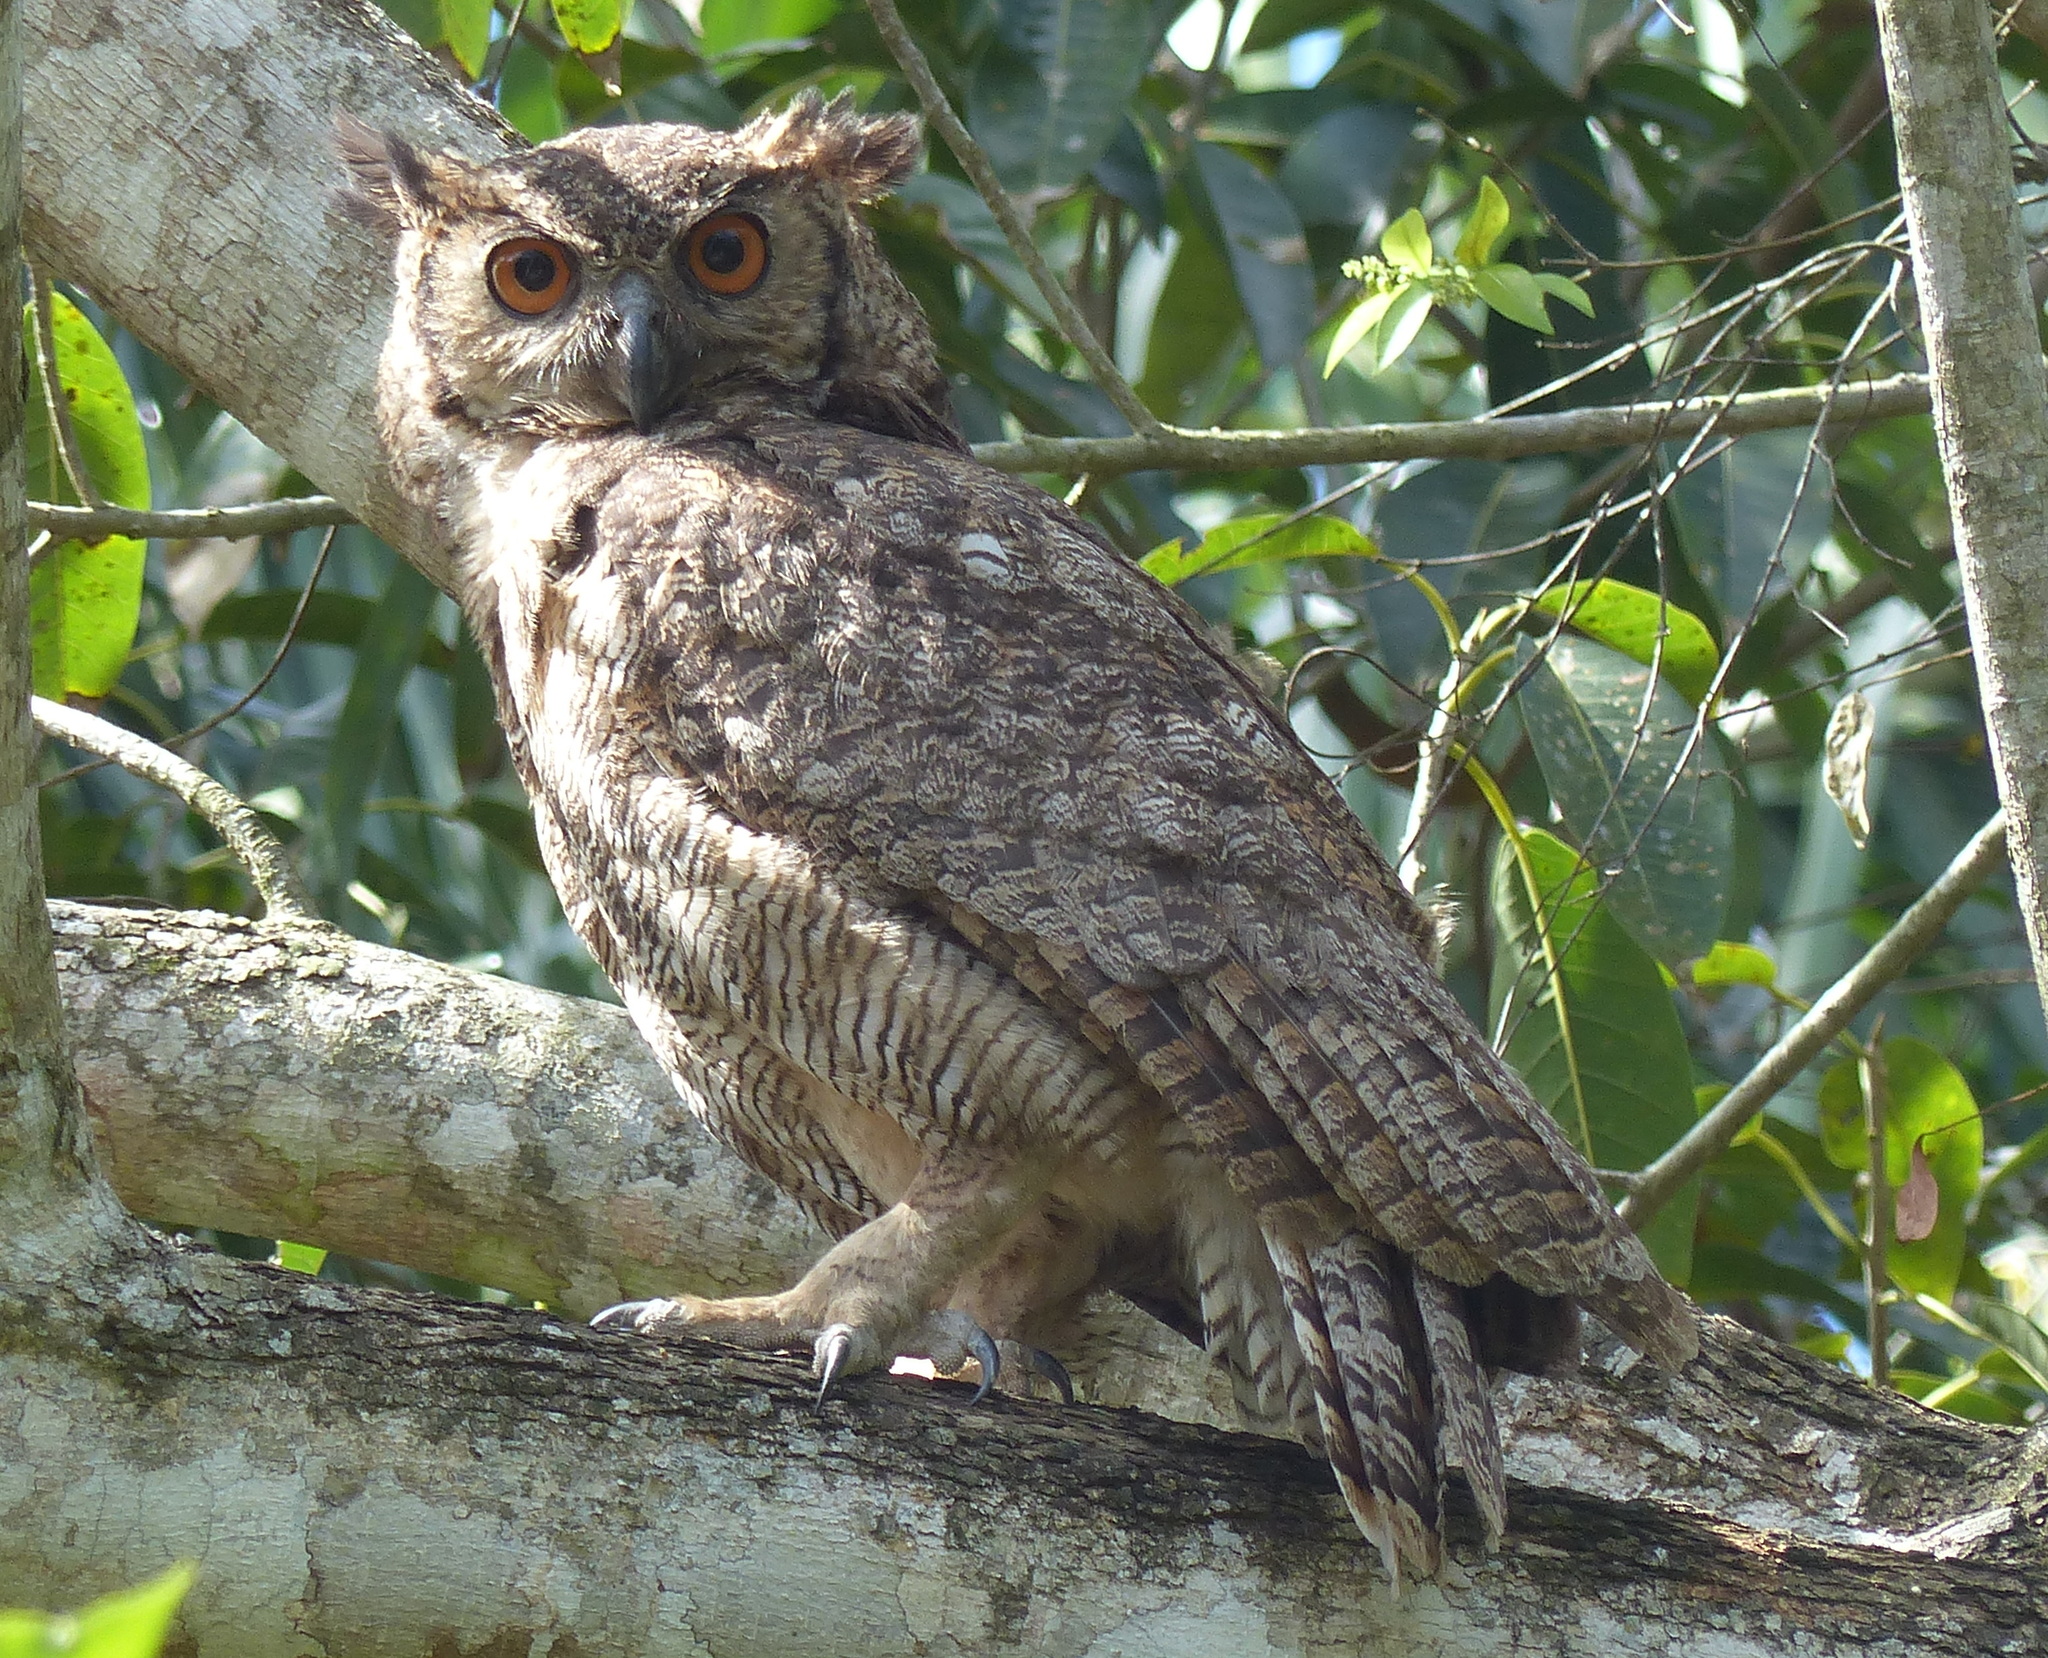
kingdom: Animalia
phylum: Chordata
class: Aves
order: Strigiformes
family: Strigidae
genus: Bubo
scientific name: Bubo virginianus
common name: Great horned owl
